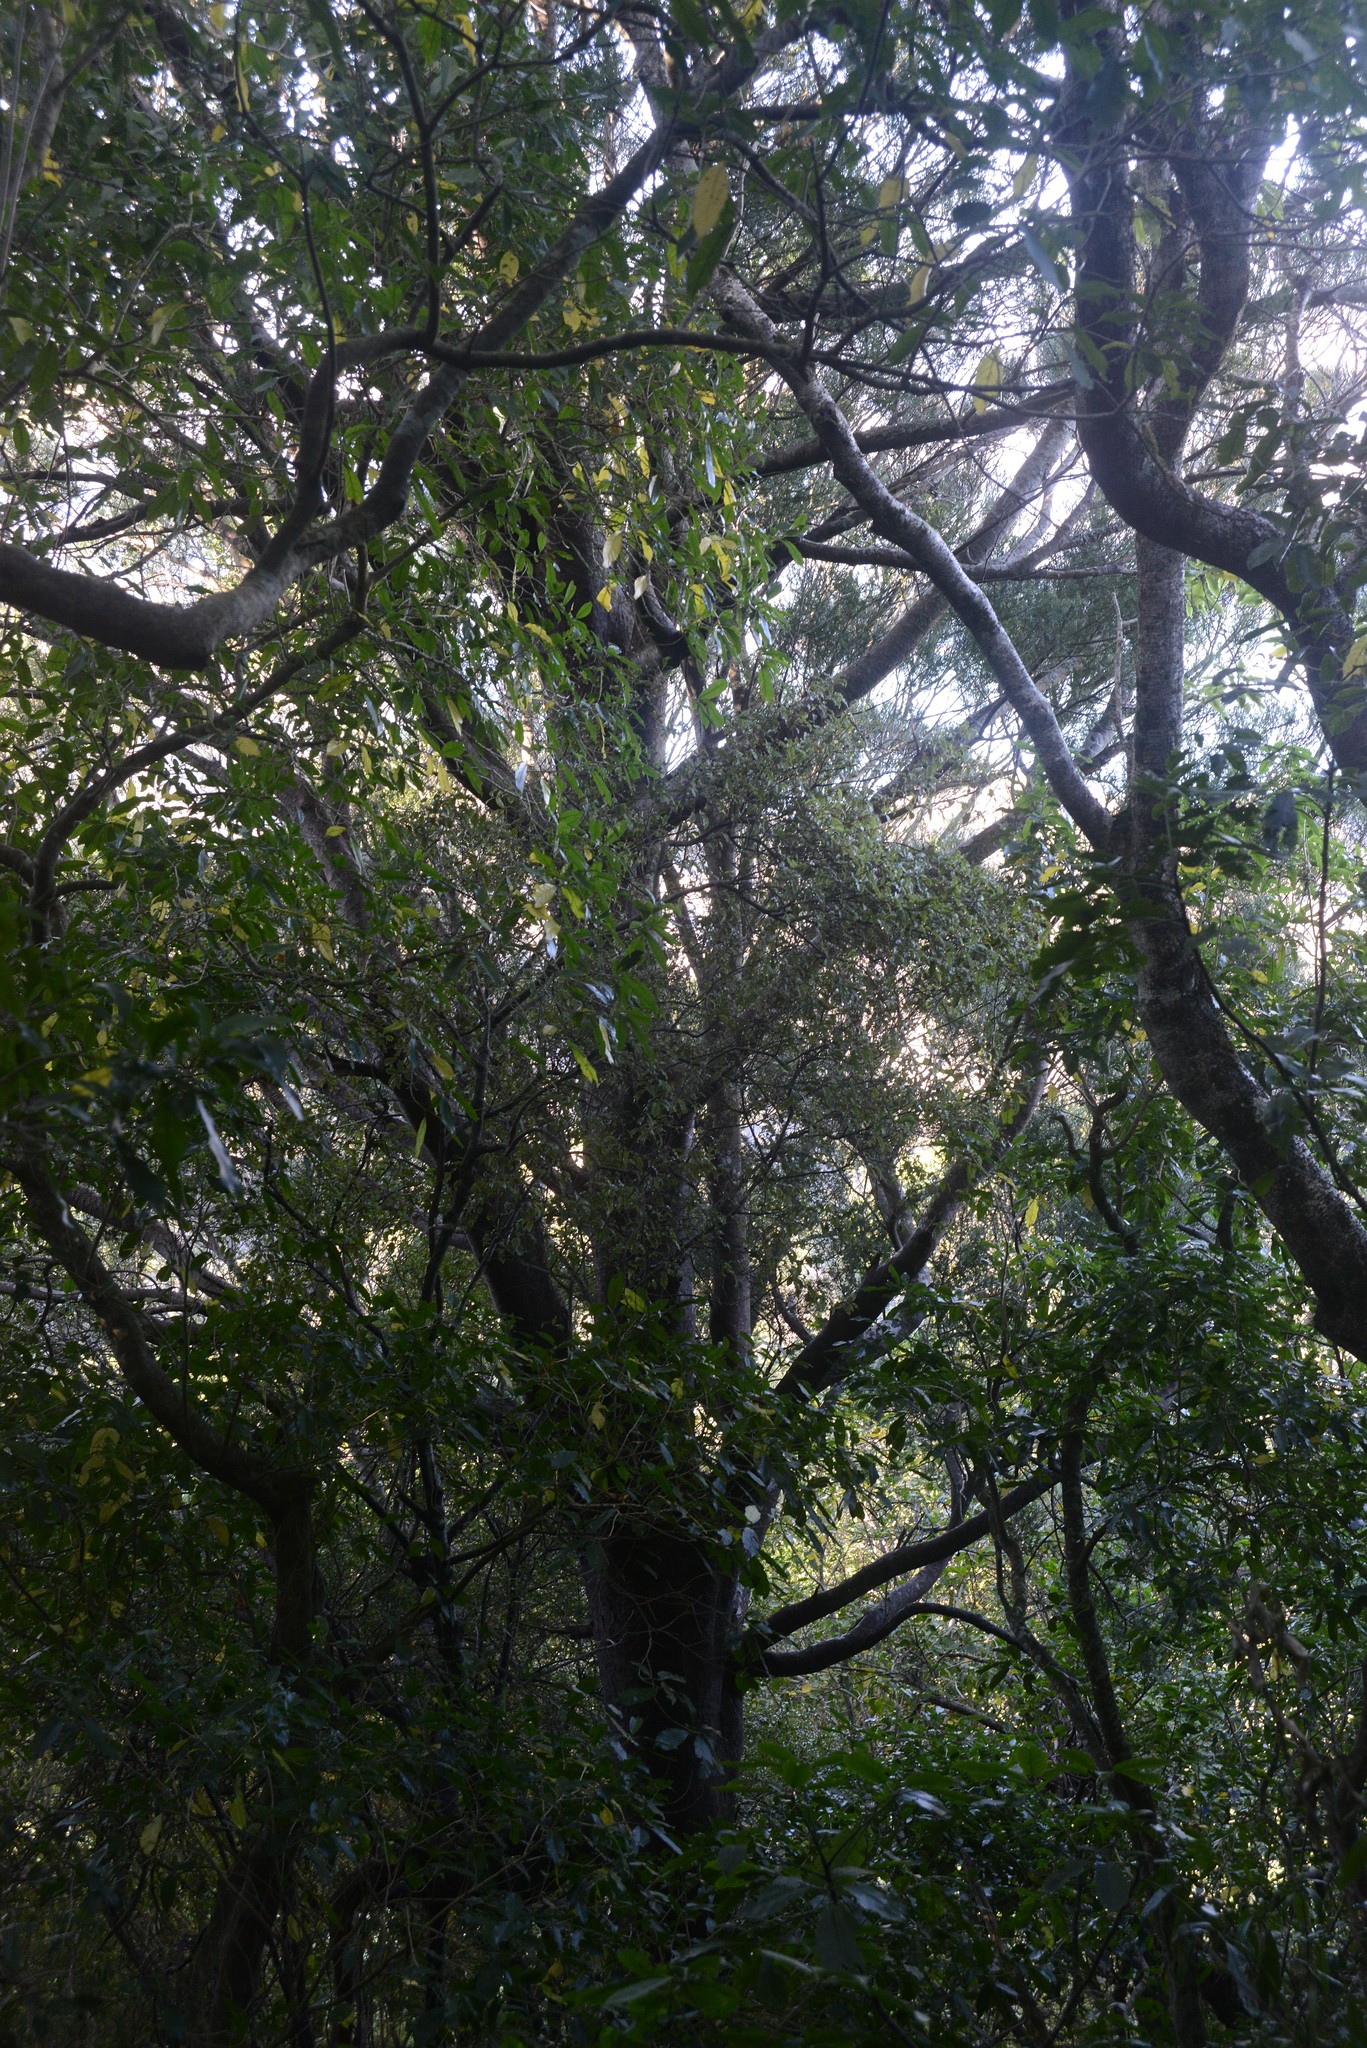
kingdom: Plantae
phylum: Tracheophyta
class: Pinopsida
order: Pinales
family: Podocarpaceae
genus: Prumnopitys
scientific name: Prumnopitys taxifolia
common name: Matai
